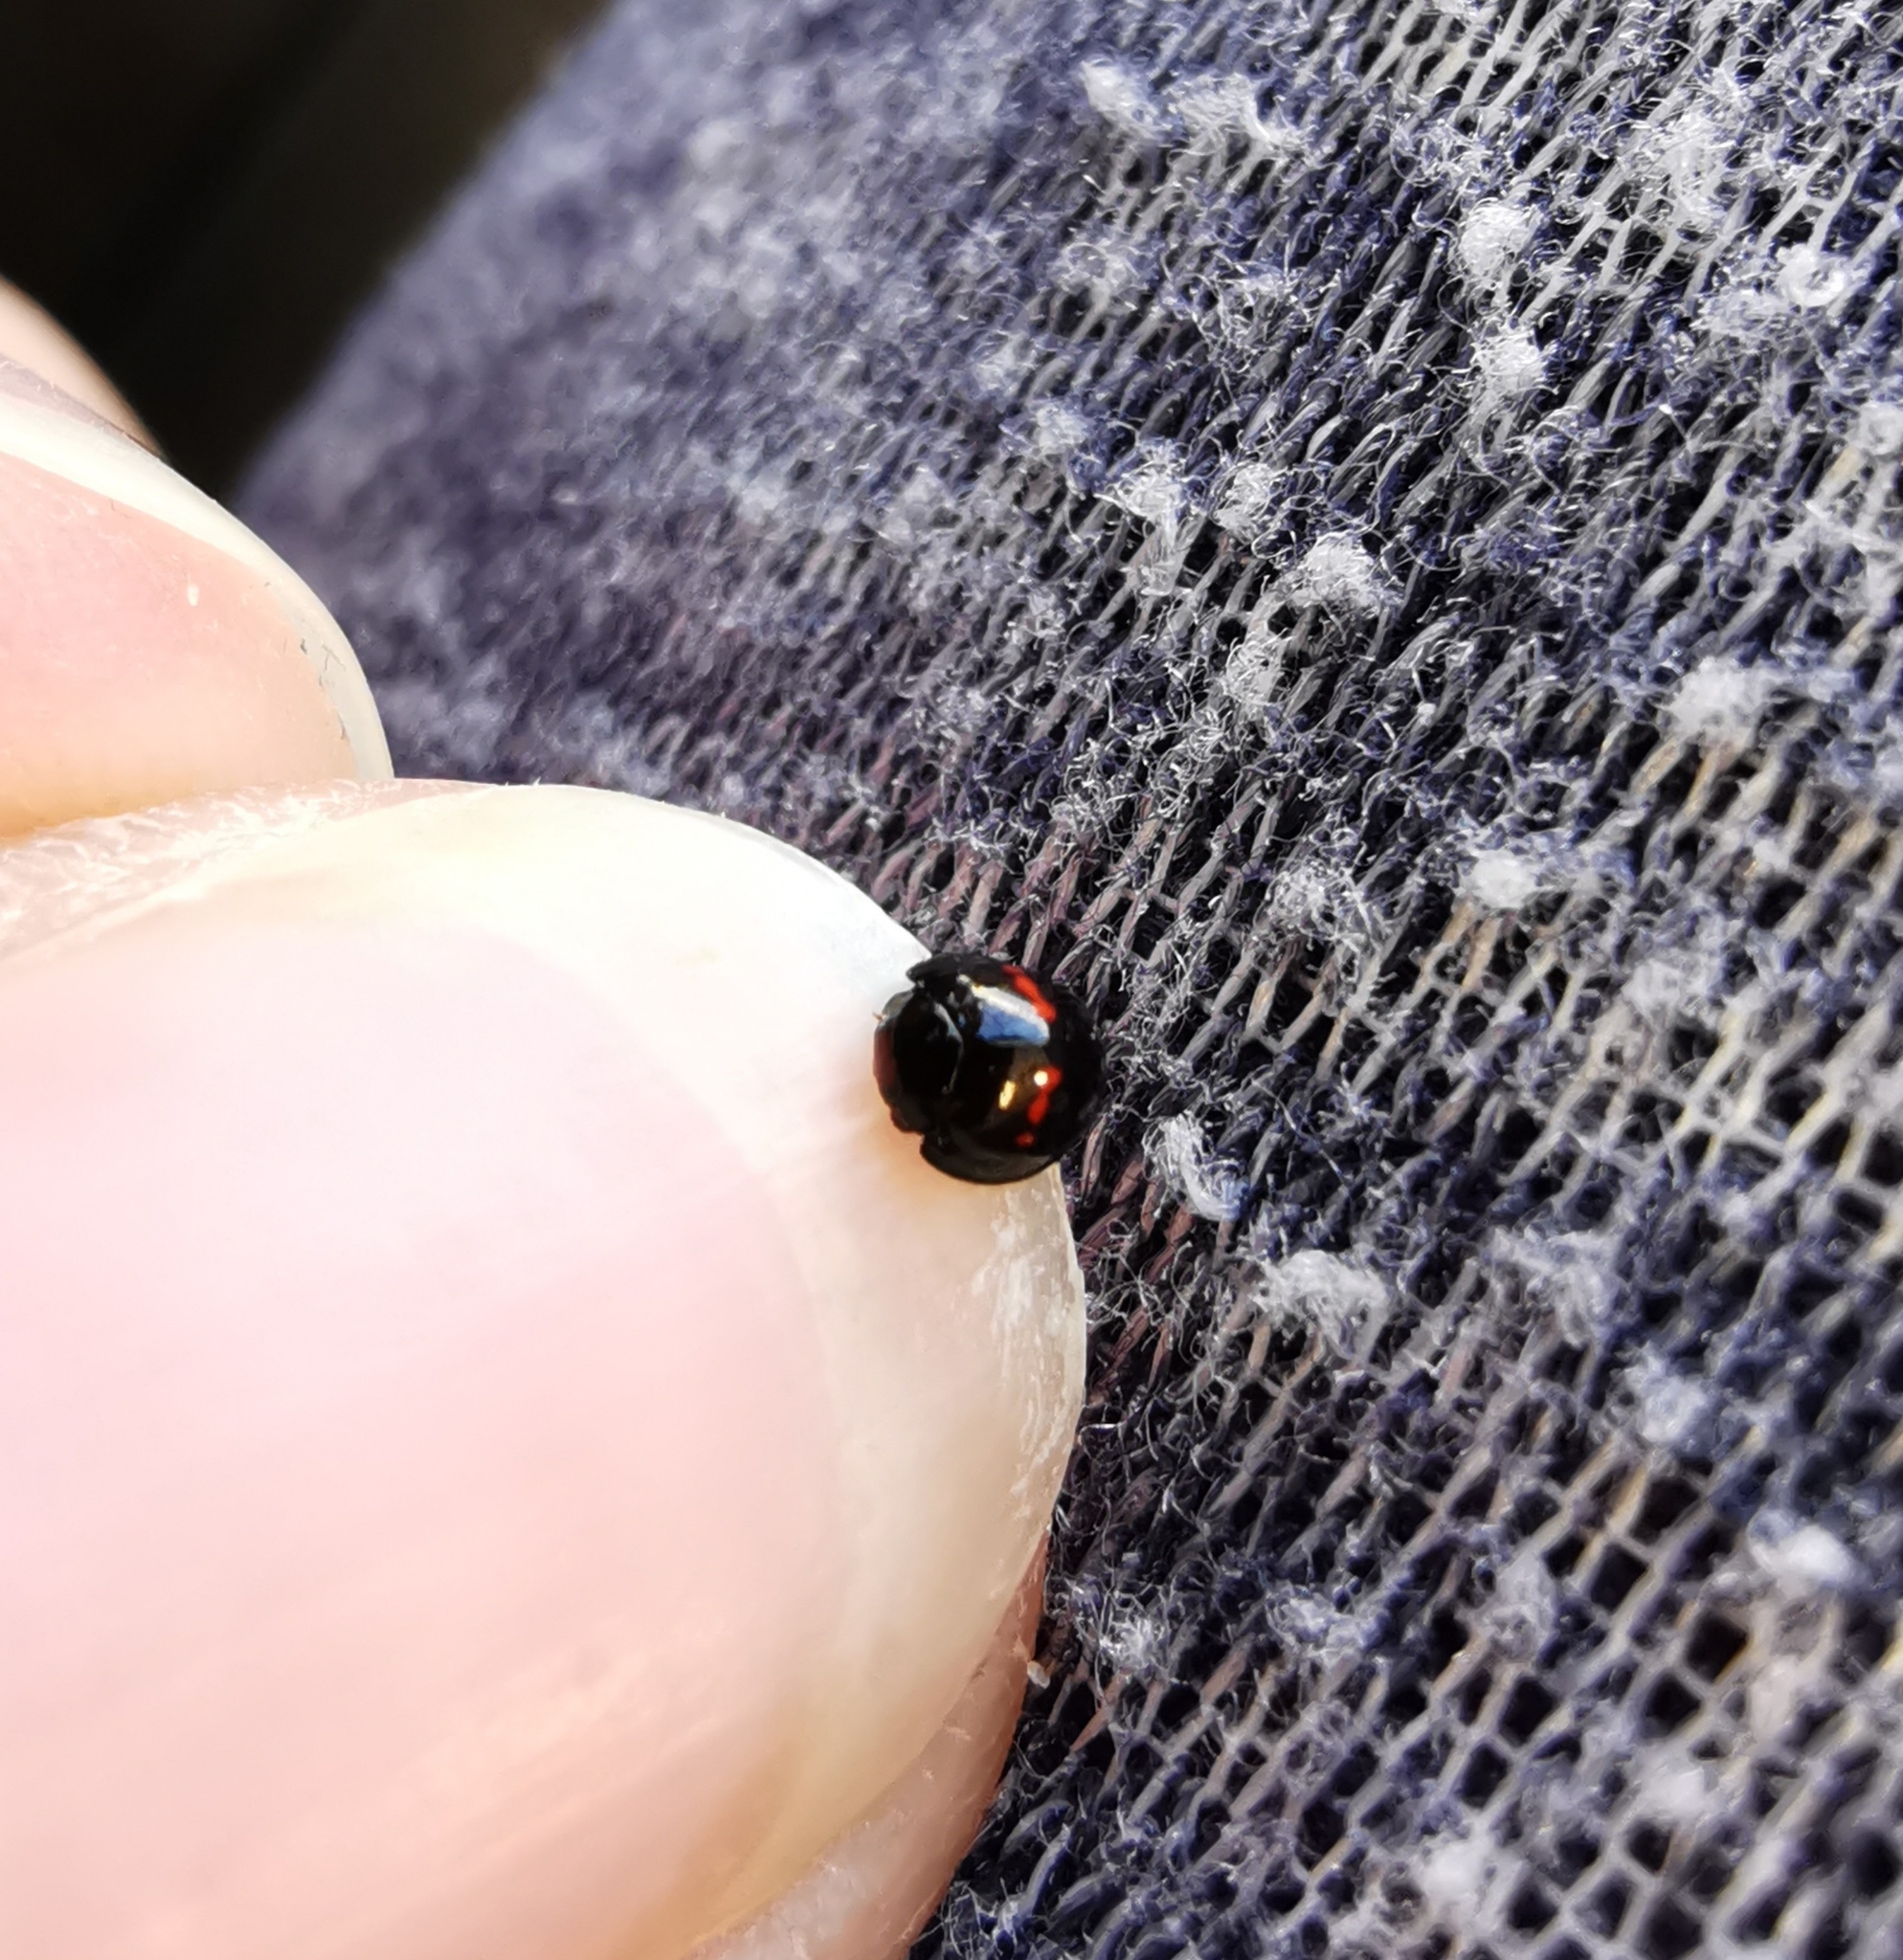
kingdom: Animalia
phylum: Arthropoda
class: Insecta
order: Coleoptera
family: Coccinellidae
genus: Chilocorus
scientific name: Chilocorus bipustulatus
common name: Heather ladybird
